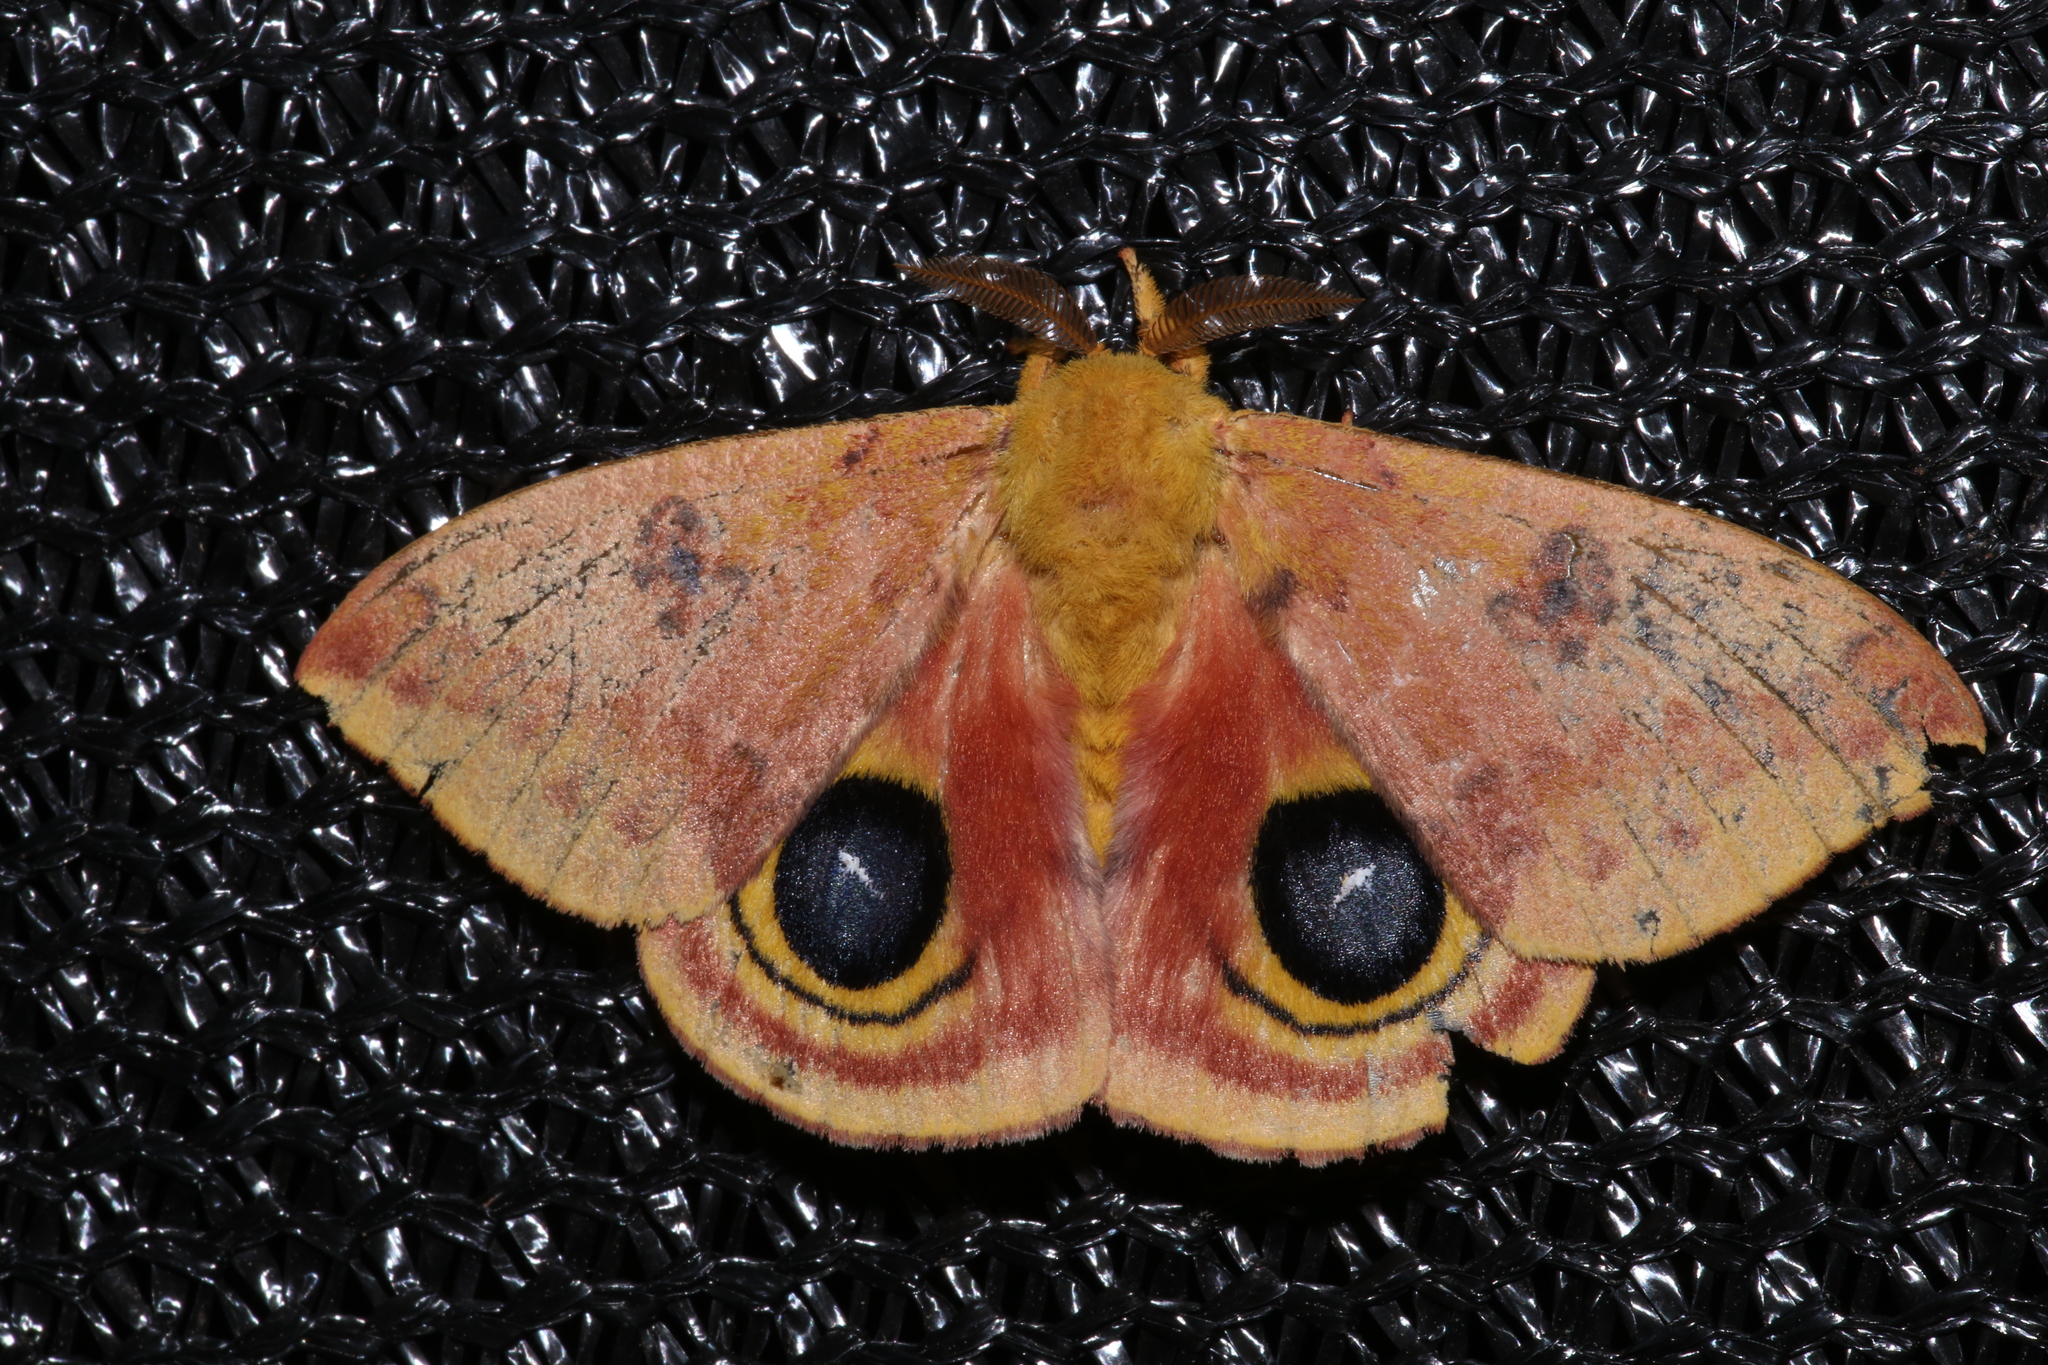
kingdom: Animalia
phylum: Arthropoda
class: Insecta
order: Lepidoptera
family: Saturniidae
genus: Automeris
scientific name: Automeris io
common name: Io moth
